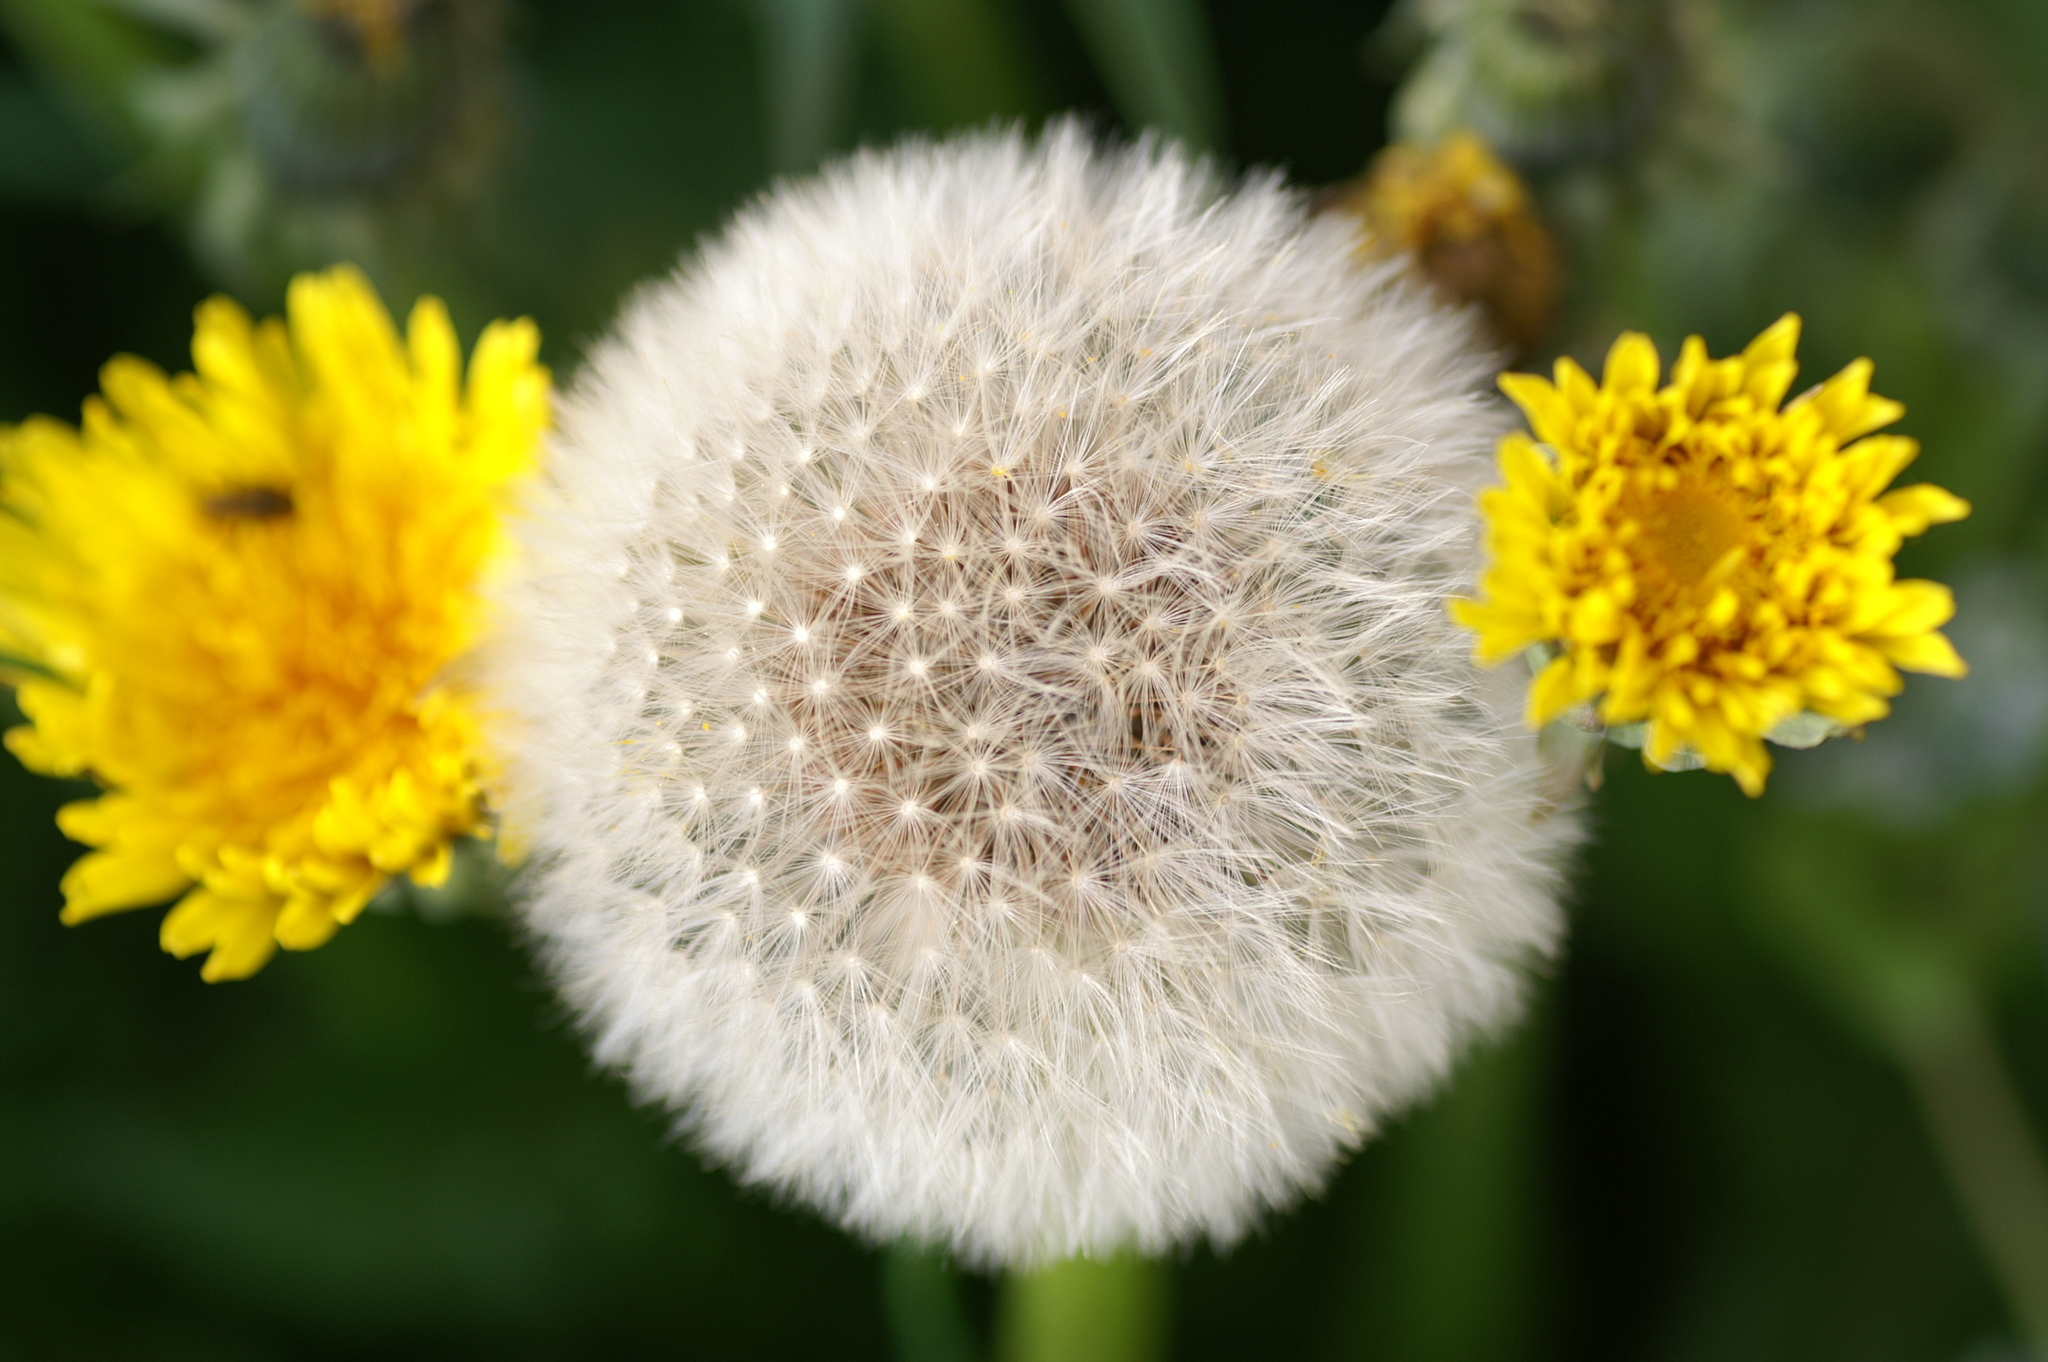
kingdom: Plantae
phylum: Tracheophyta
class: Magnoliopsida
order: Asterales
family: Asteraceae
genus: Taraxacum
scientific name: Taraxacum officinale
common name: Common dandelion
